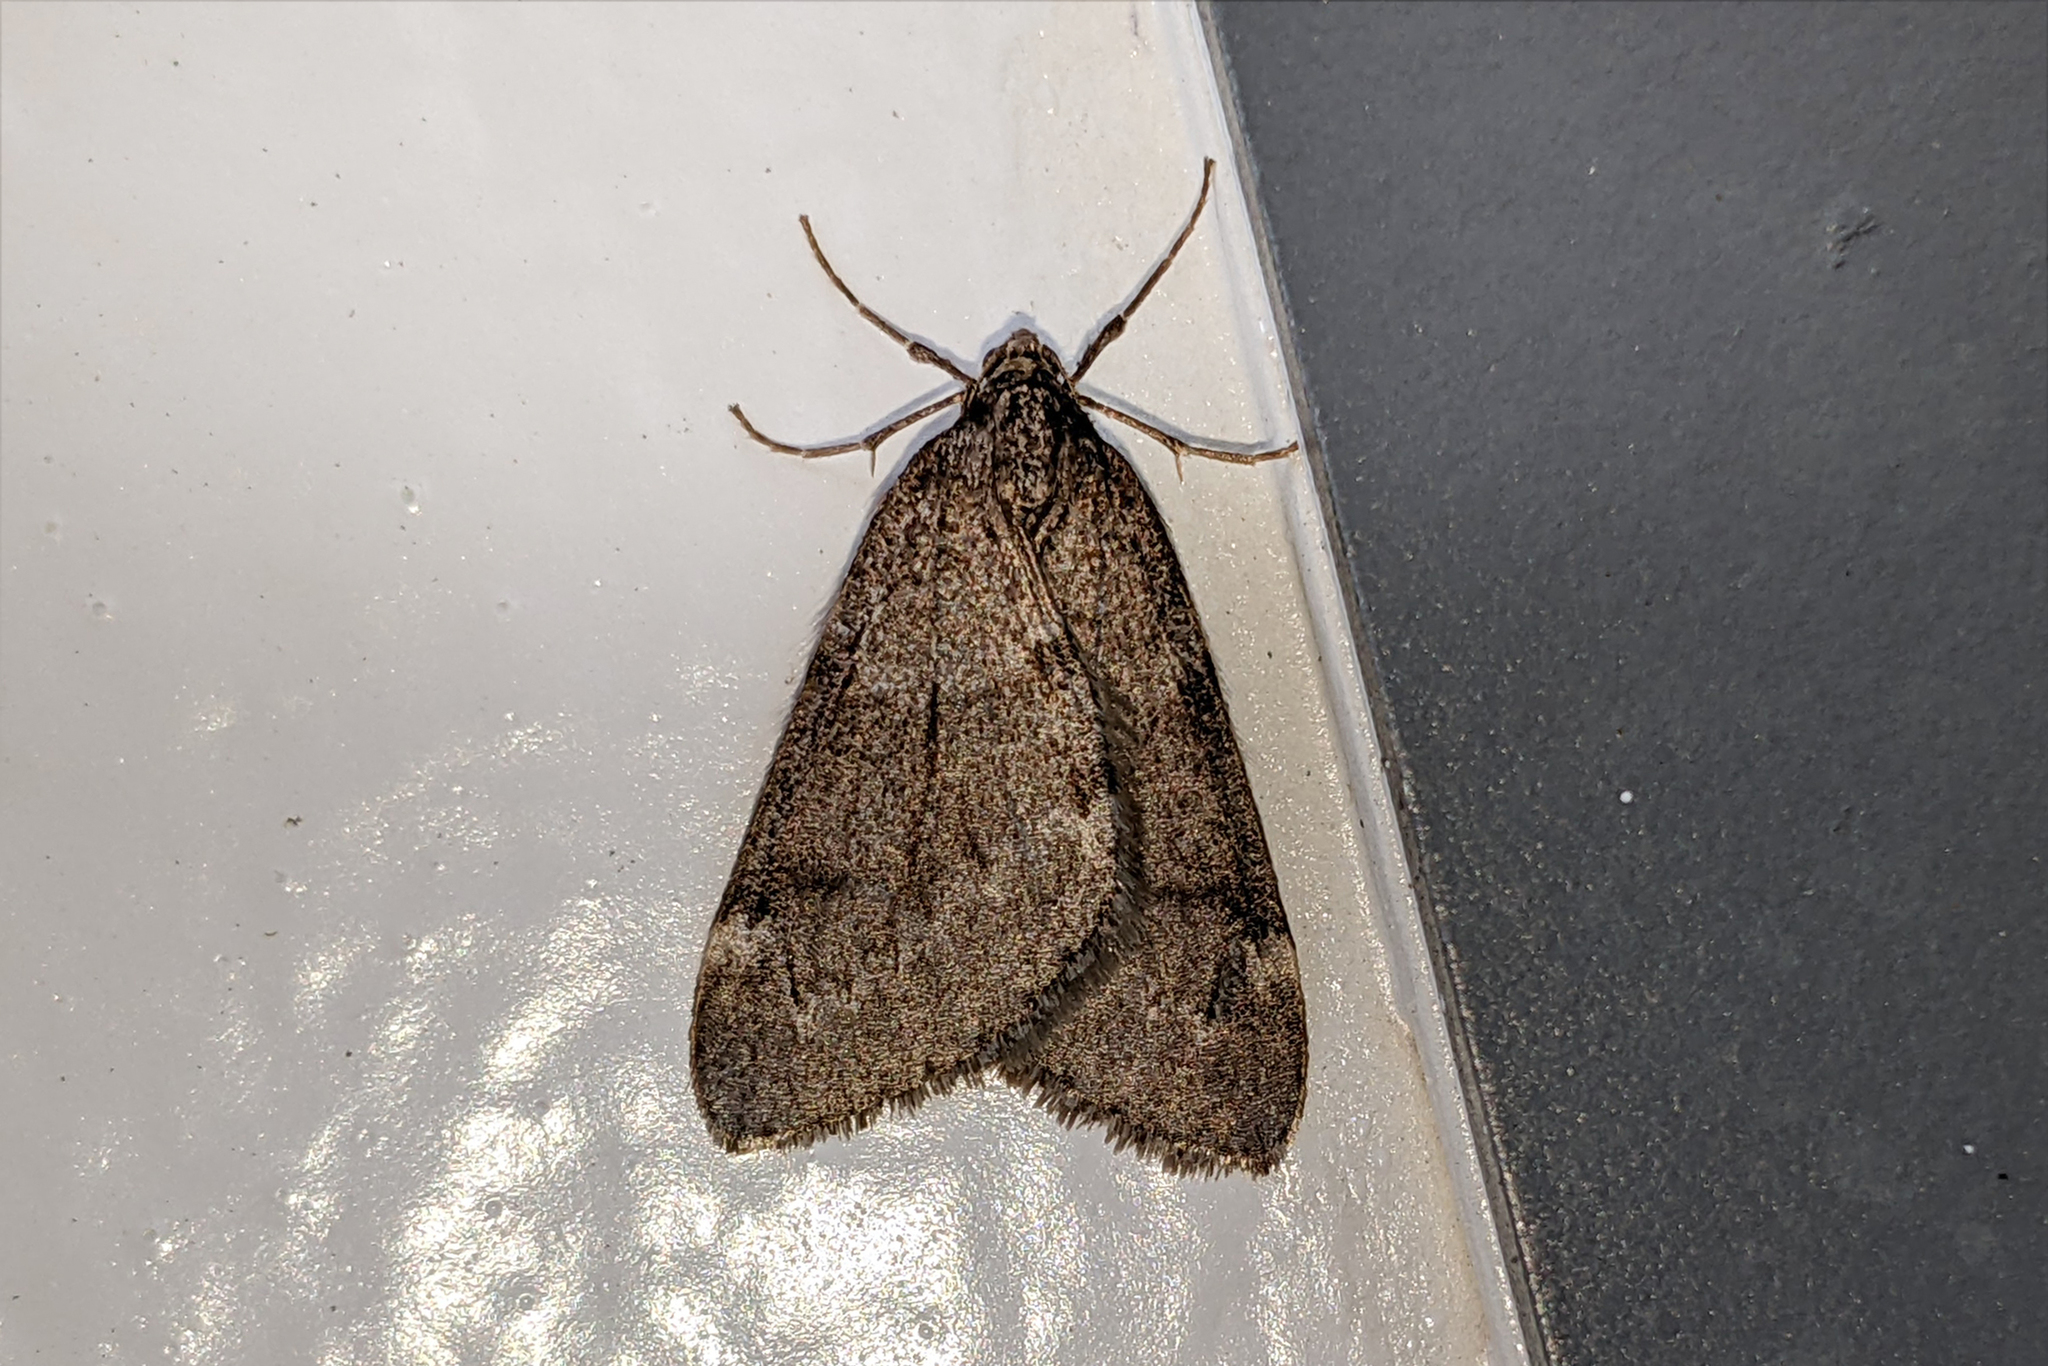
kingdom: Animalia
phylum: Arthropoda
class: Insecta
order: Lepidoptera
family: Geometridae
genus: Alsophila
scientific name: Alsophila pometaria
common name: Fall cankerworm
